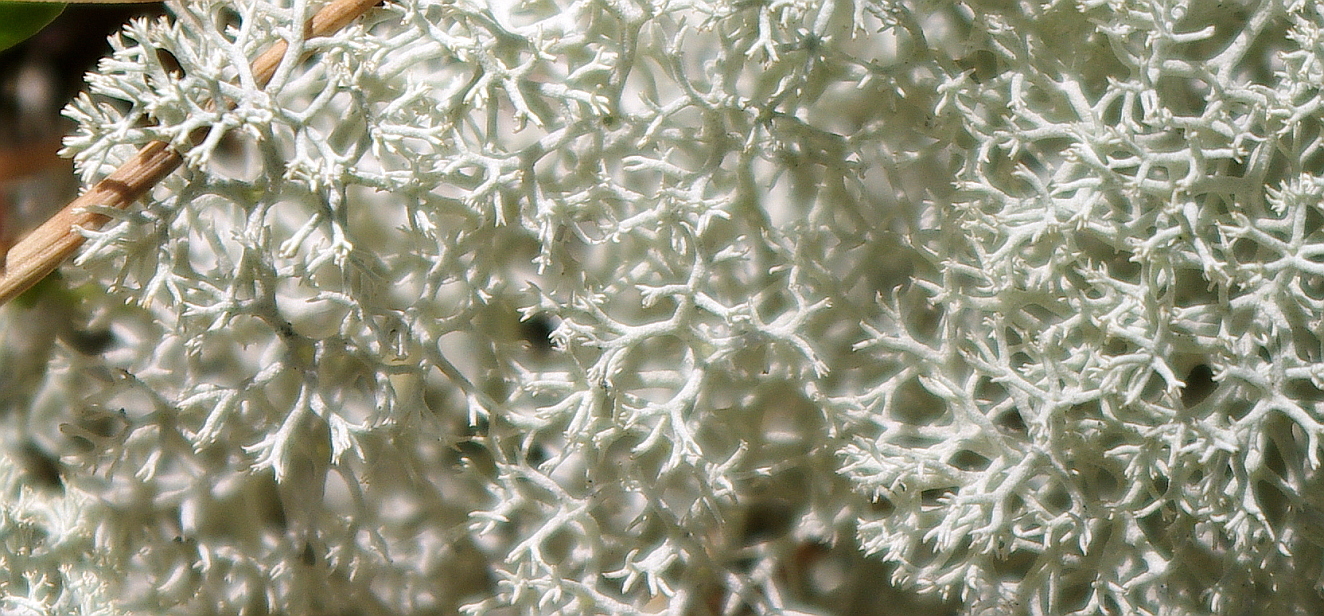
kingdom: Fungi
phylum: Ascomycota
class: Lecanoromycetes
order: Lecanorales
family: Cladoniaceae
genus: Cladonia
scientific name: Cladonia stellaris
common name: Star-tipped reindeer lichen
